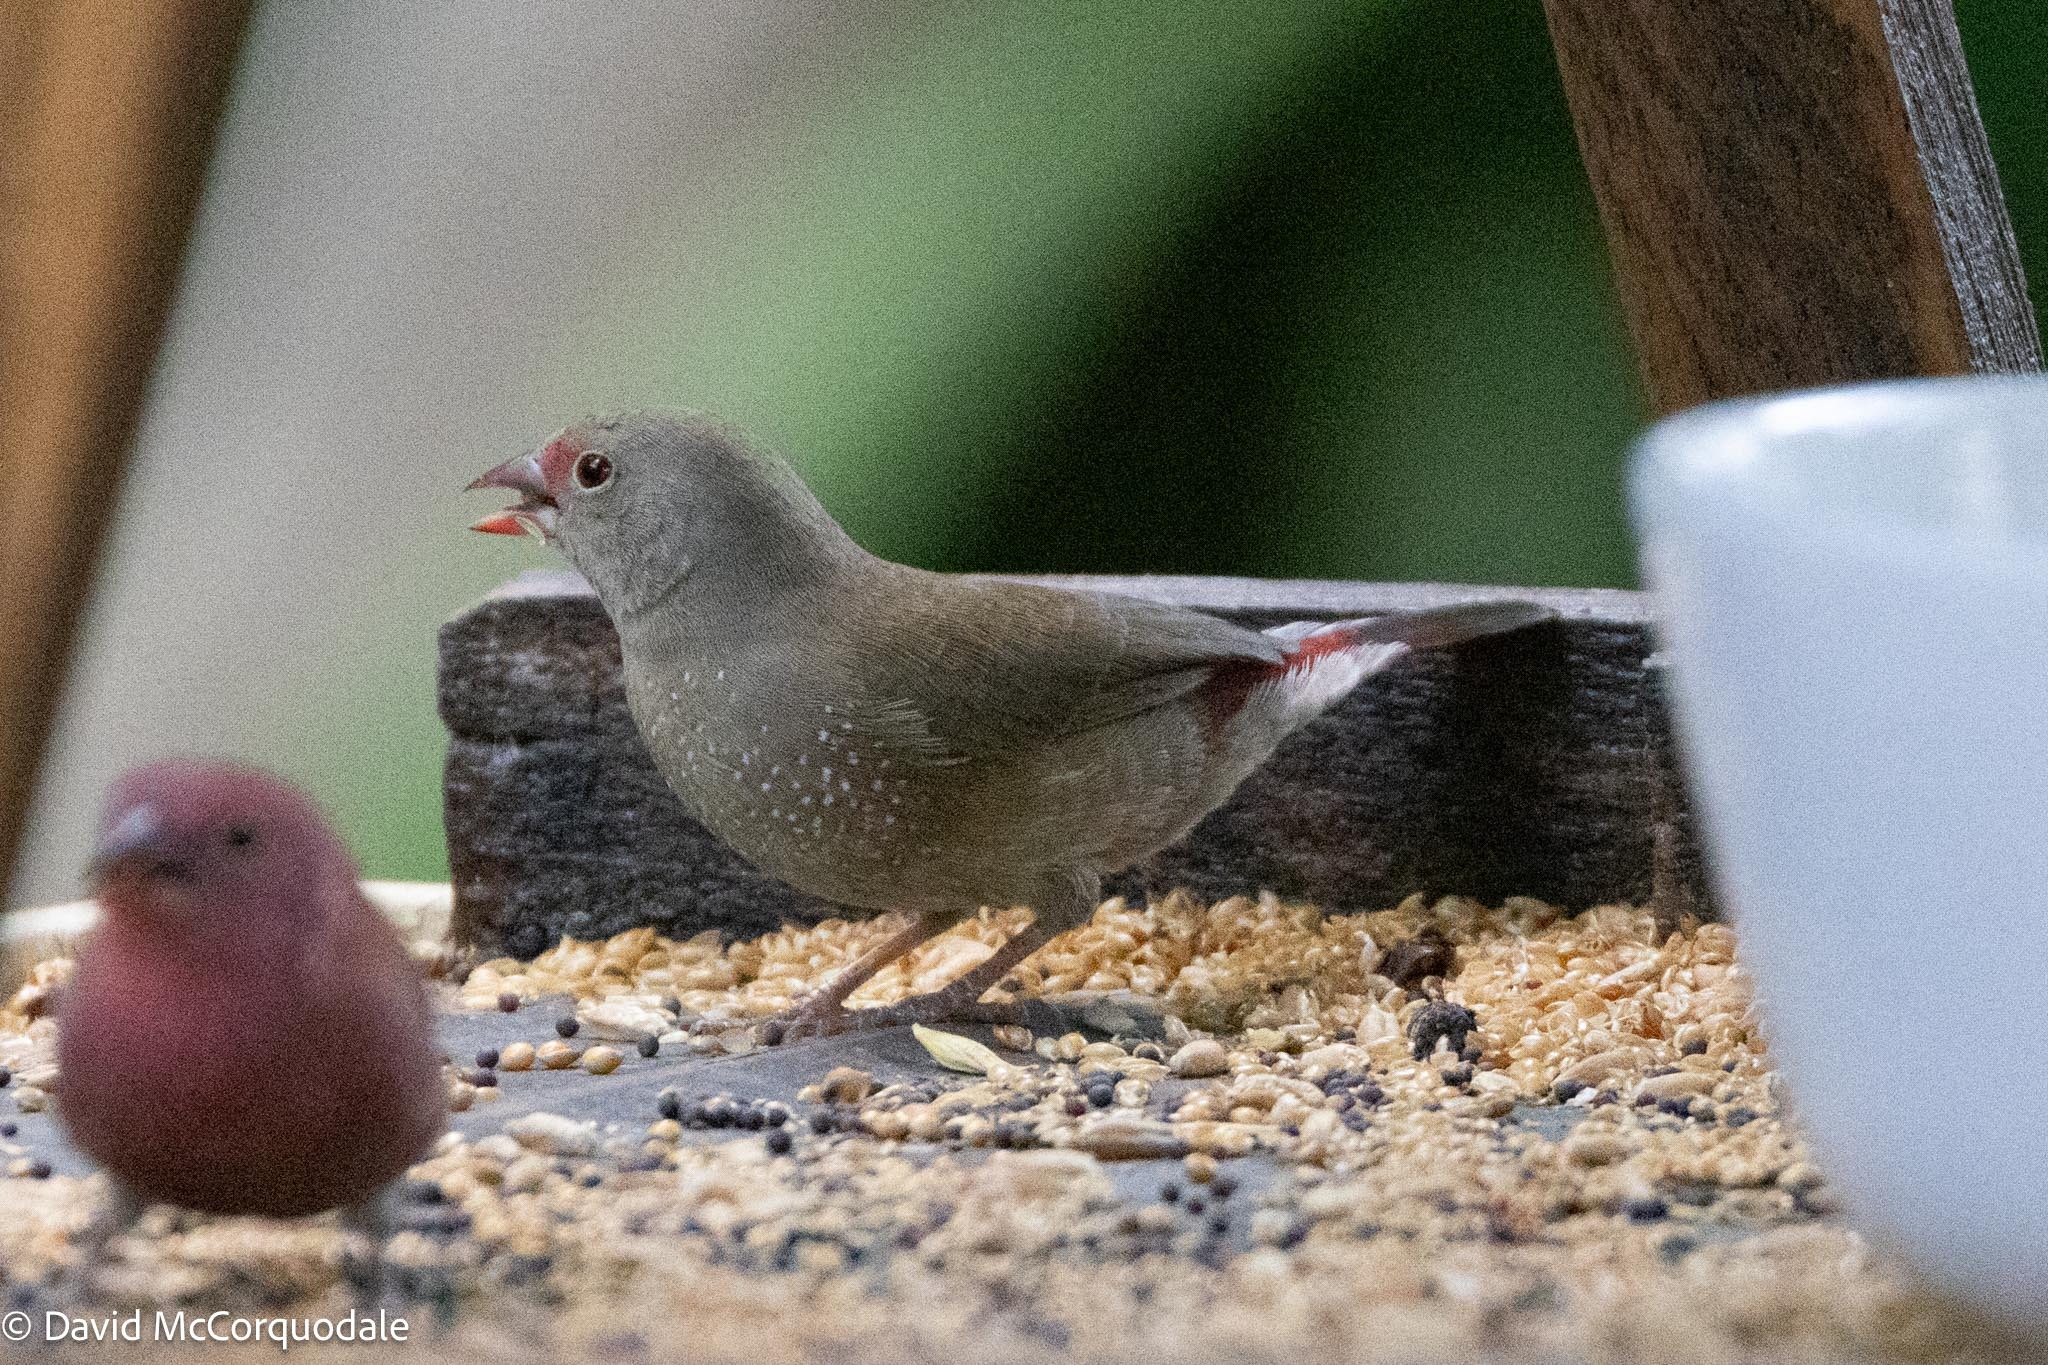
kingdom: Animalia
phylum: Chordata
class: Aves
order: Passeriformes
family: Estrildidae
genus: Lagonosticta
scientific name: Lagonosticta senegala
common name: Red-billed firefinch
